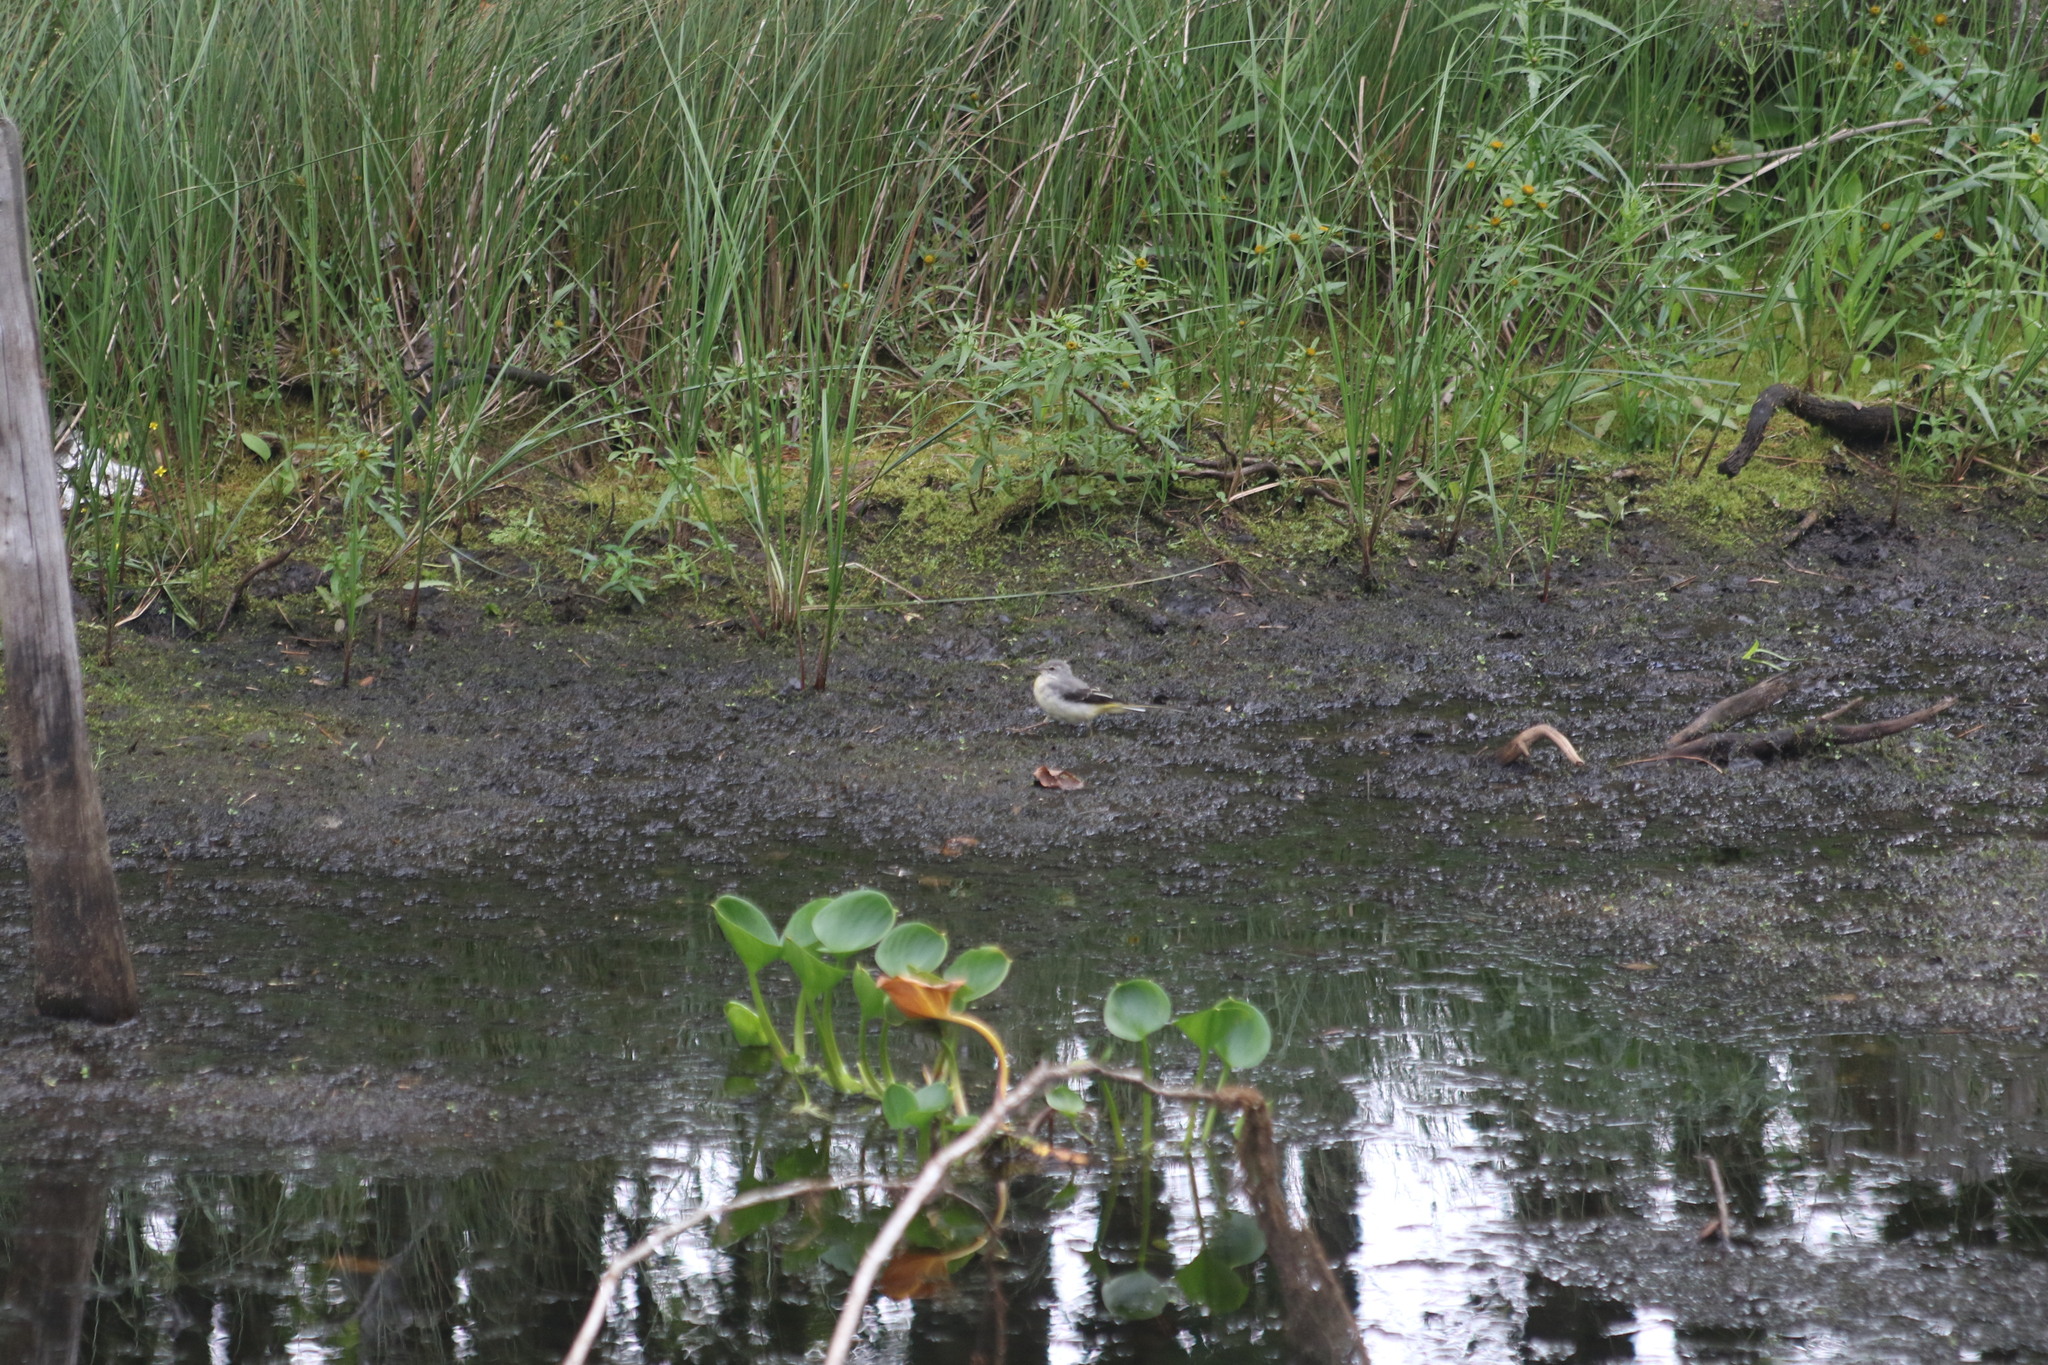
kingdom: Animalia
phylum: Chordata
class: Aves
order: Passeriformes
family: Motacillidae
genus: Motacilla
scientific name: Motacilla cinerea
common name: Grey wagtail
